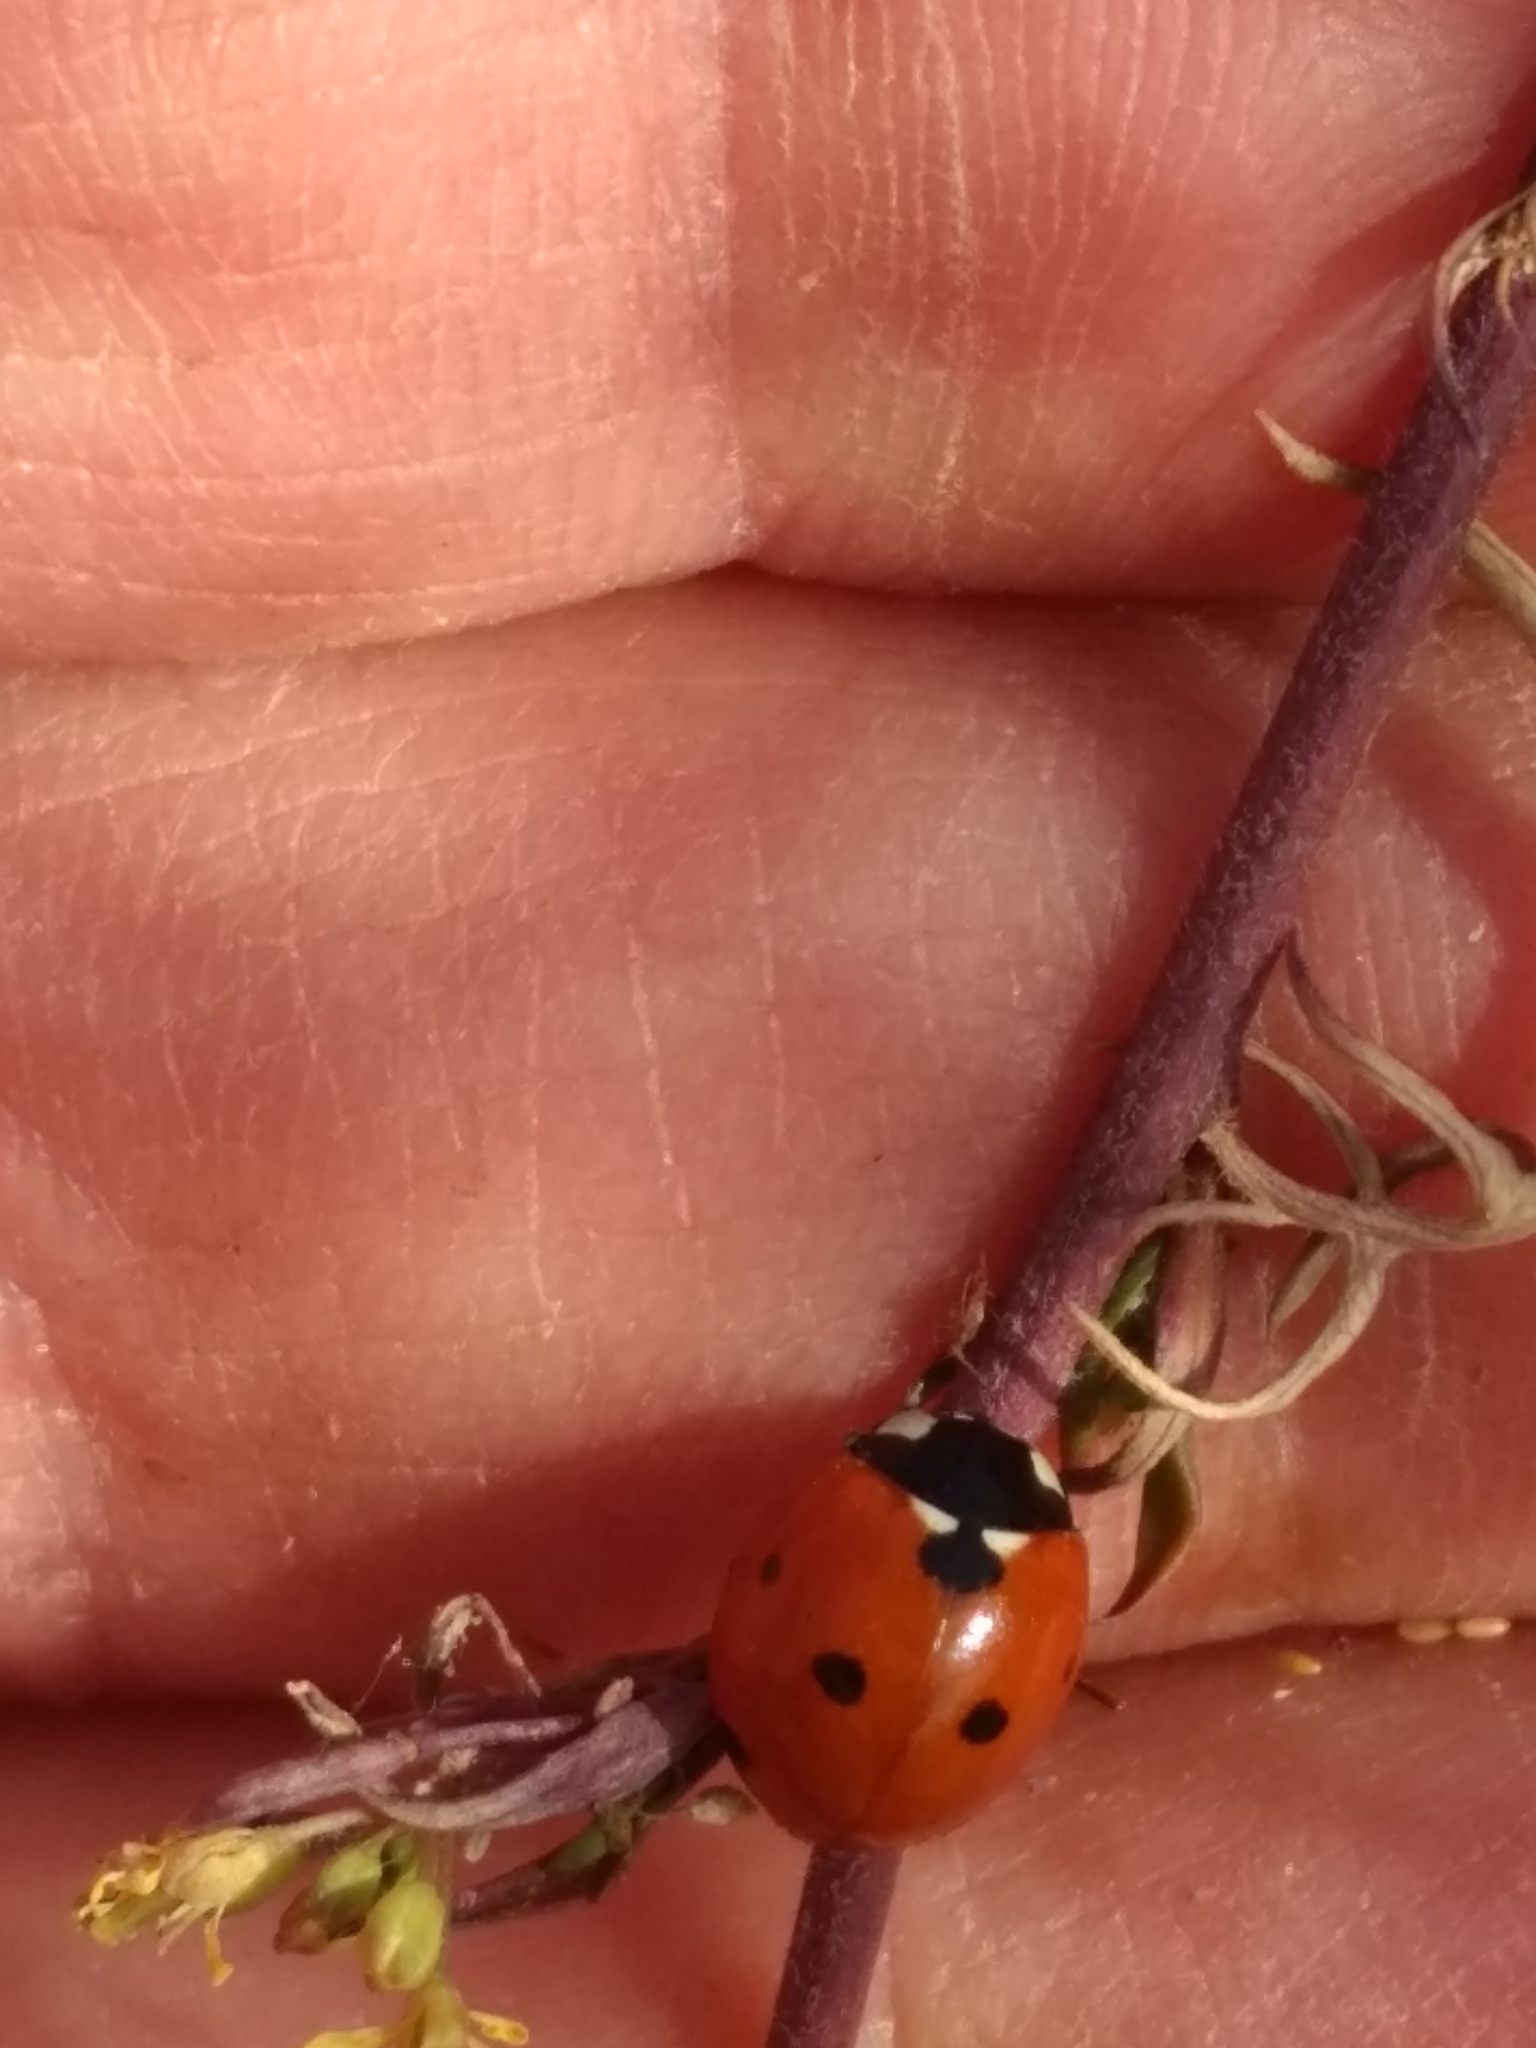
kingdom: Animalia
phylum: Arthropoda
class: Insecta
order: Coleoptera
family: Coccinellidae
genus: Coccinella
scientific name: Coccinella septempunctata
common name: Sevenspotted lady beetle
